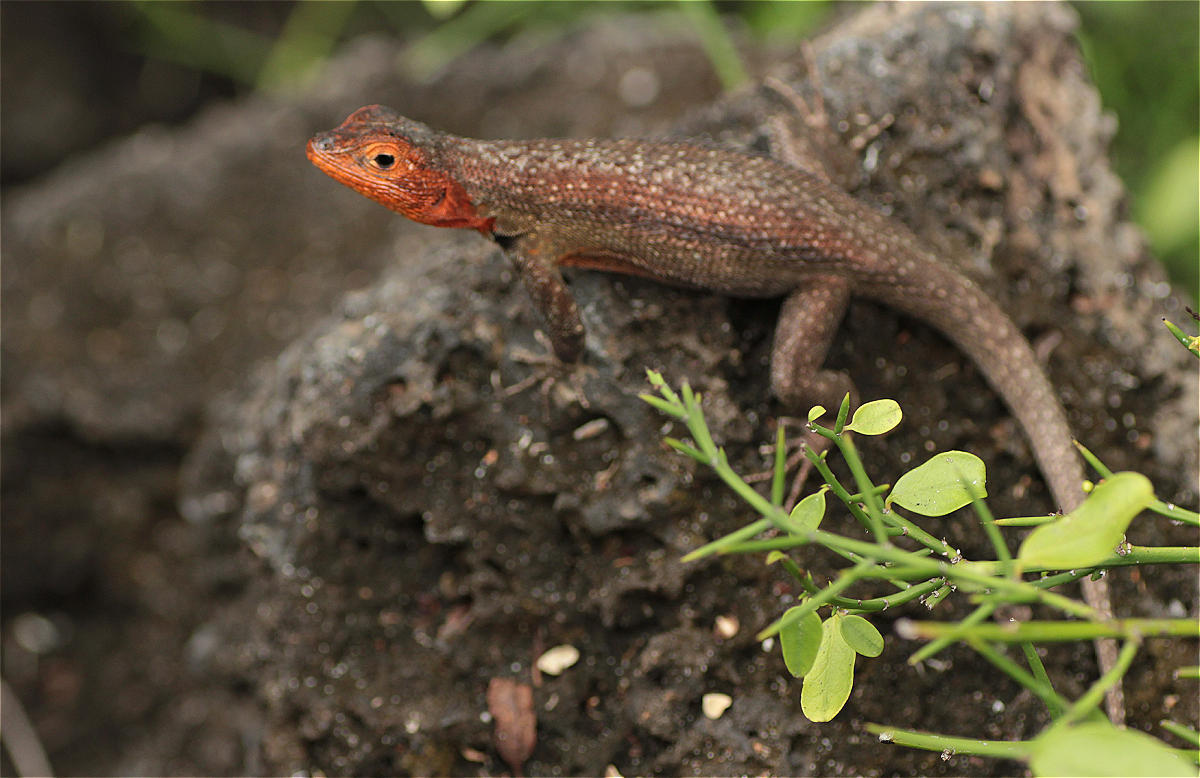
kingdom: Animalia
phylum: Chordata
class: Squamata
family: Tropiduridae
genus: Microlophus
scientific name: Microlophus indefatigabilis
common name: Galapagos lava lizard
